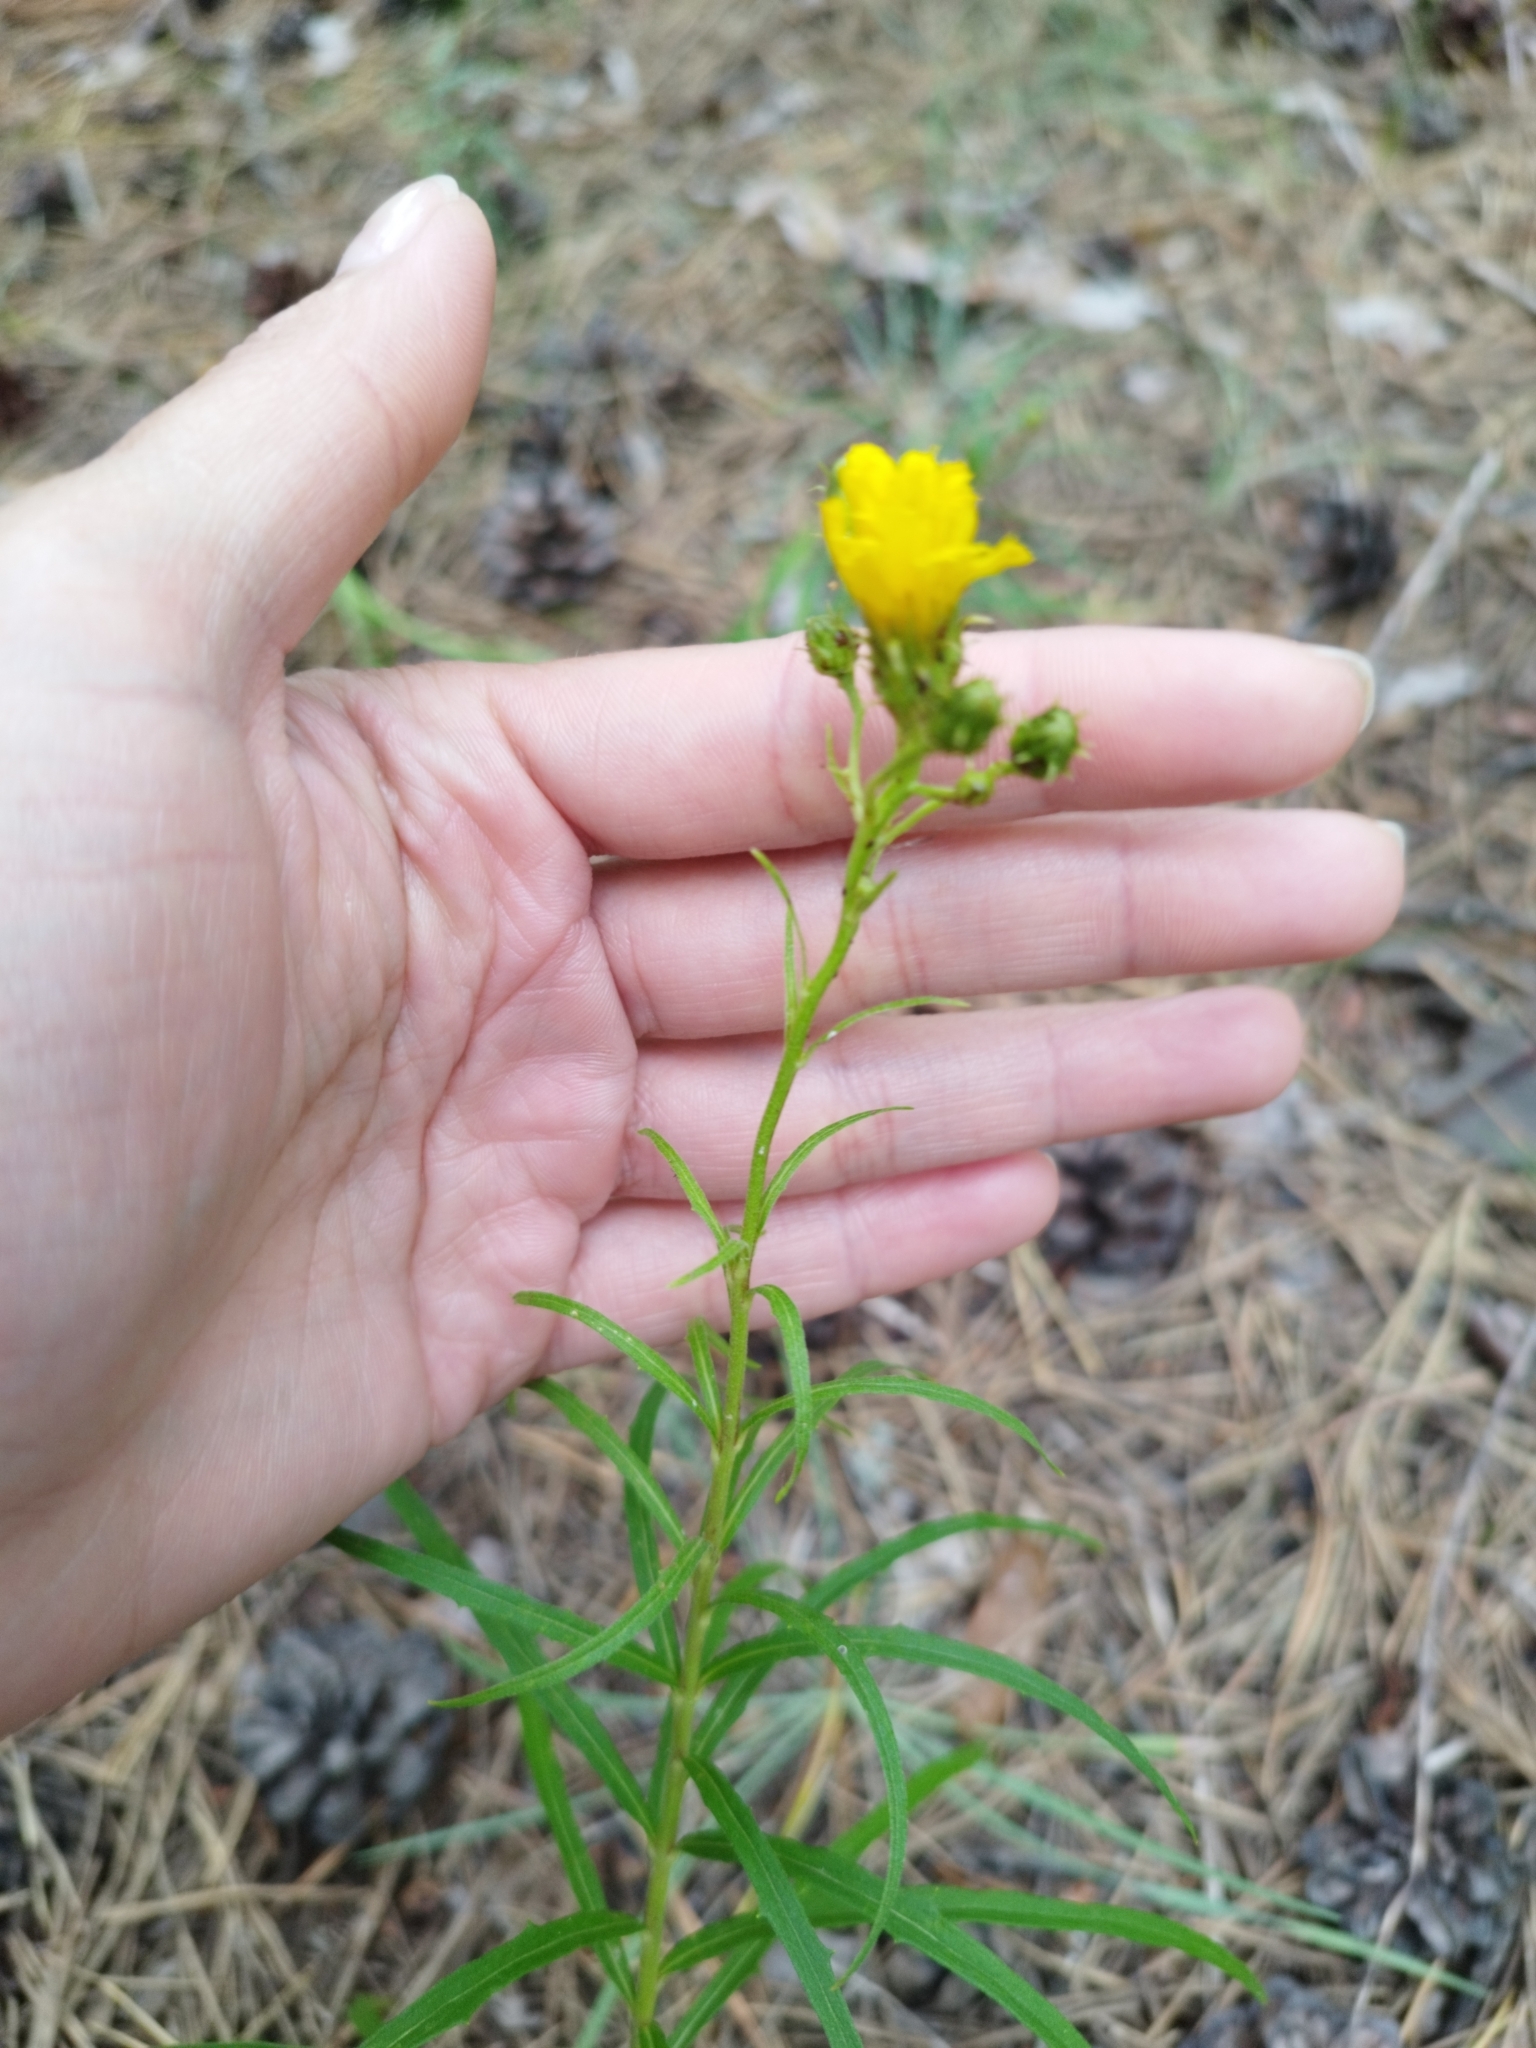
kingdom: Plantae
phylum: Tracheophyta
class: Magnoliopsida
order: Asterales
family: Asteraceae
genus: Hieracium
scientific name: Hieracium umbellatum
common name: Northern hawkweed
